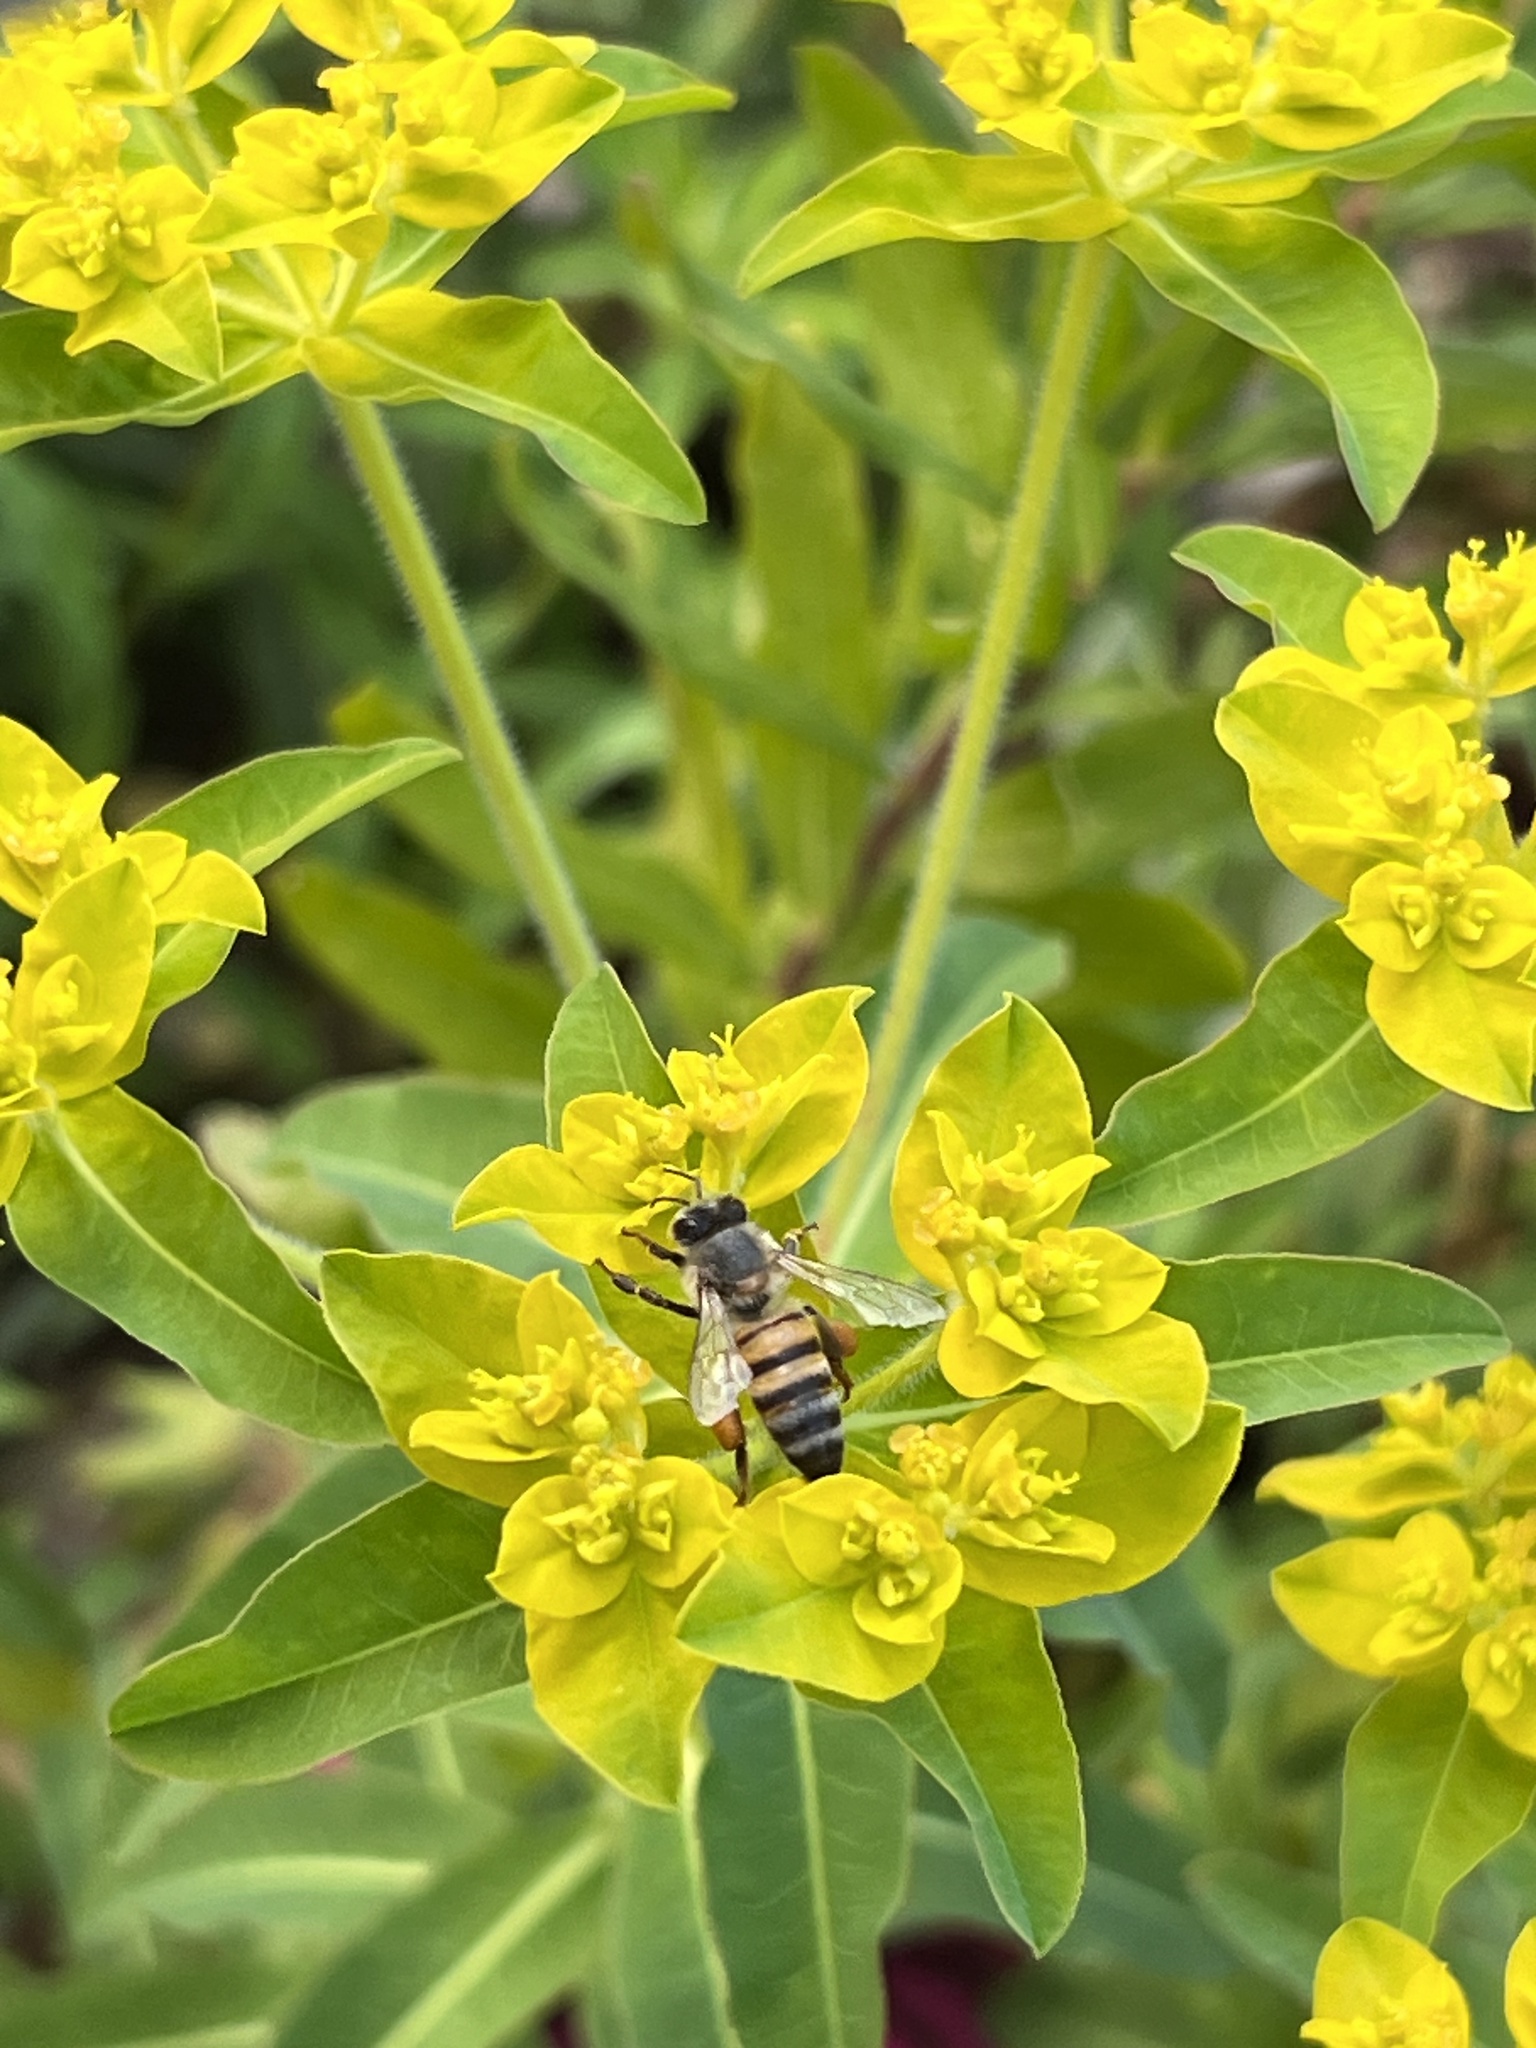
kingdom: Animalia
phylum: Arthropoda
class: Insecta
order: Hymenoptera
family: Apidae
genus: Apis
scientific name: Apis mellifera
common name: Honey bee
